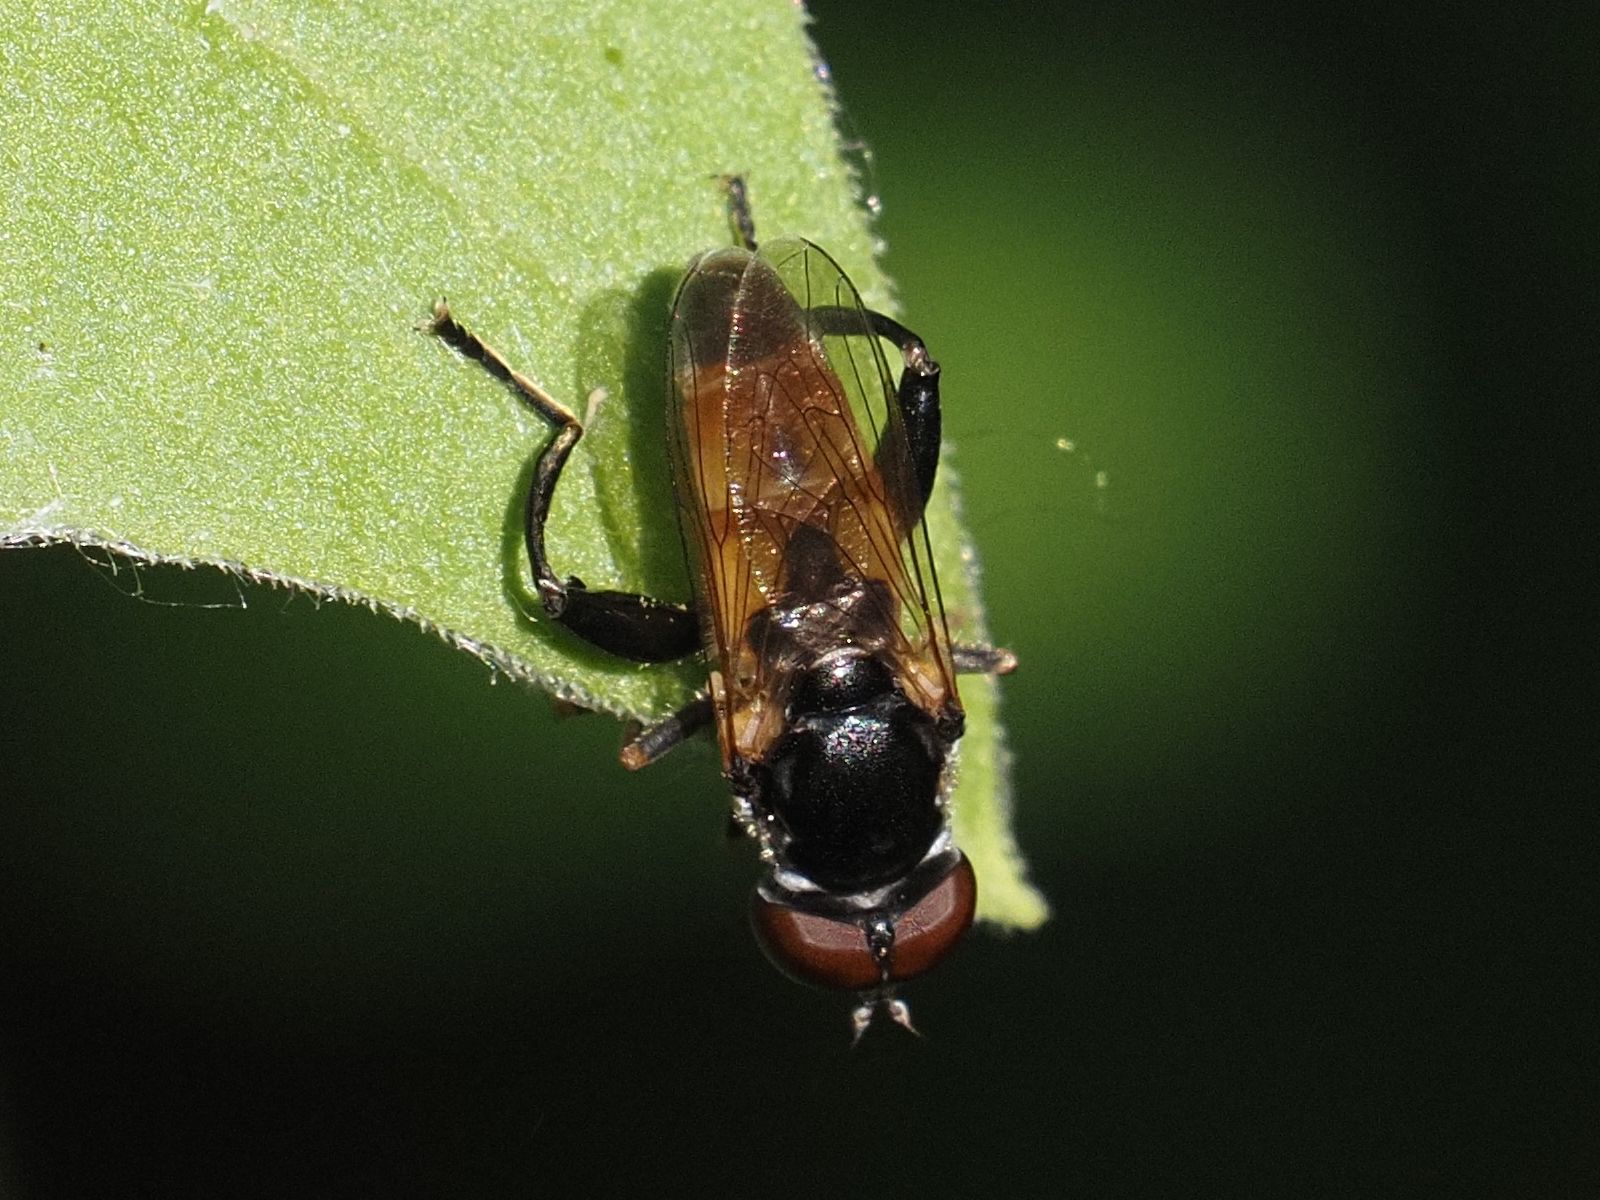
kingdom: Animalia
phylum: Arthropoda
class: Insecta
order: Diptera
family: Syrphidae
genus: Tropidia
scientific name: Tropidia scita
